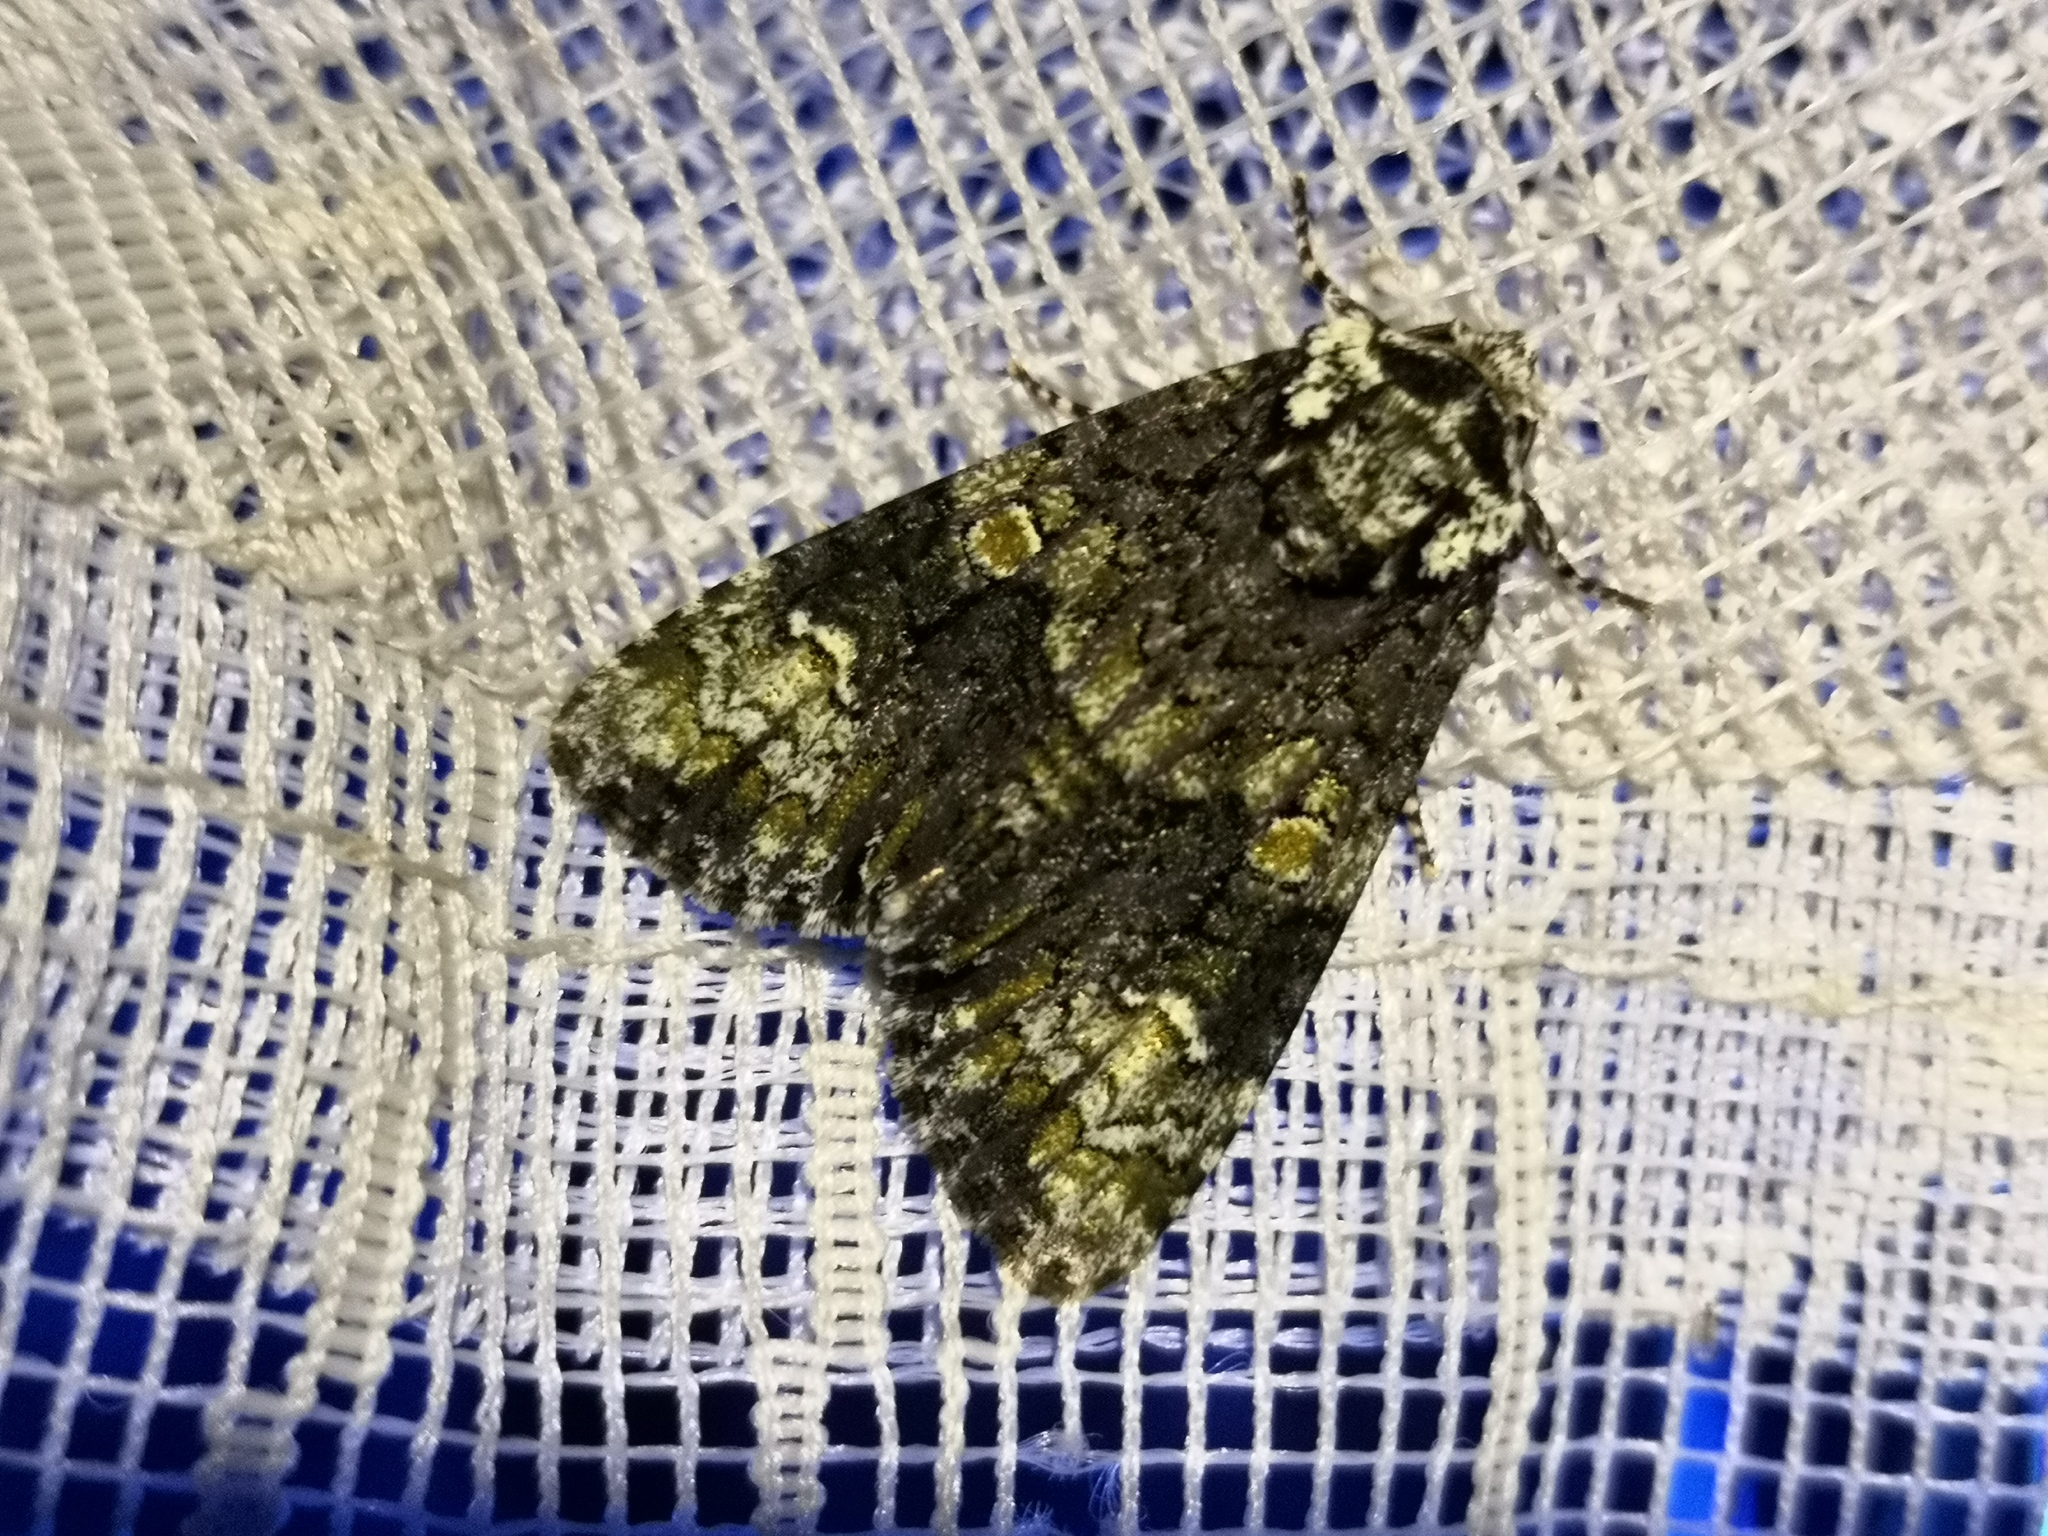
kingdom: Animalia
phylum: Arthropoda
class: Insecta
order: Lepidoptera
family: Noctuidae
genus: Craniophora
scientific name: Craniophora ligustri
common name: Coronet
